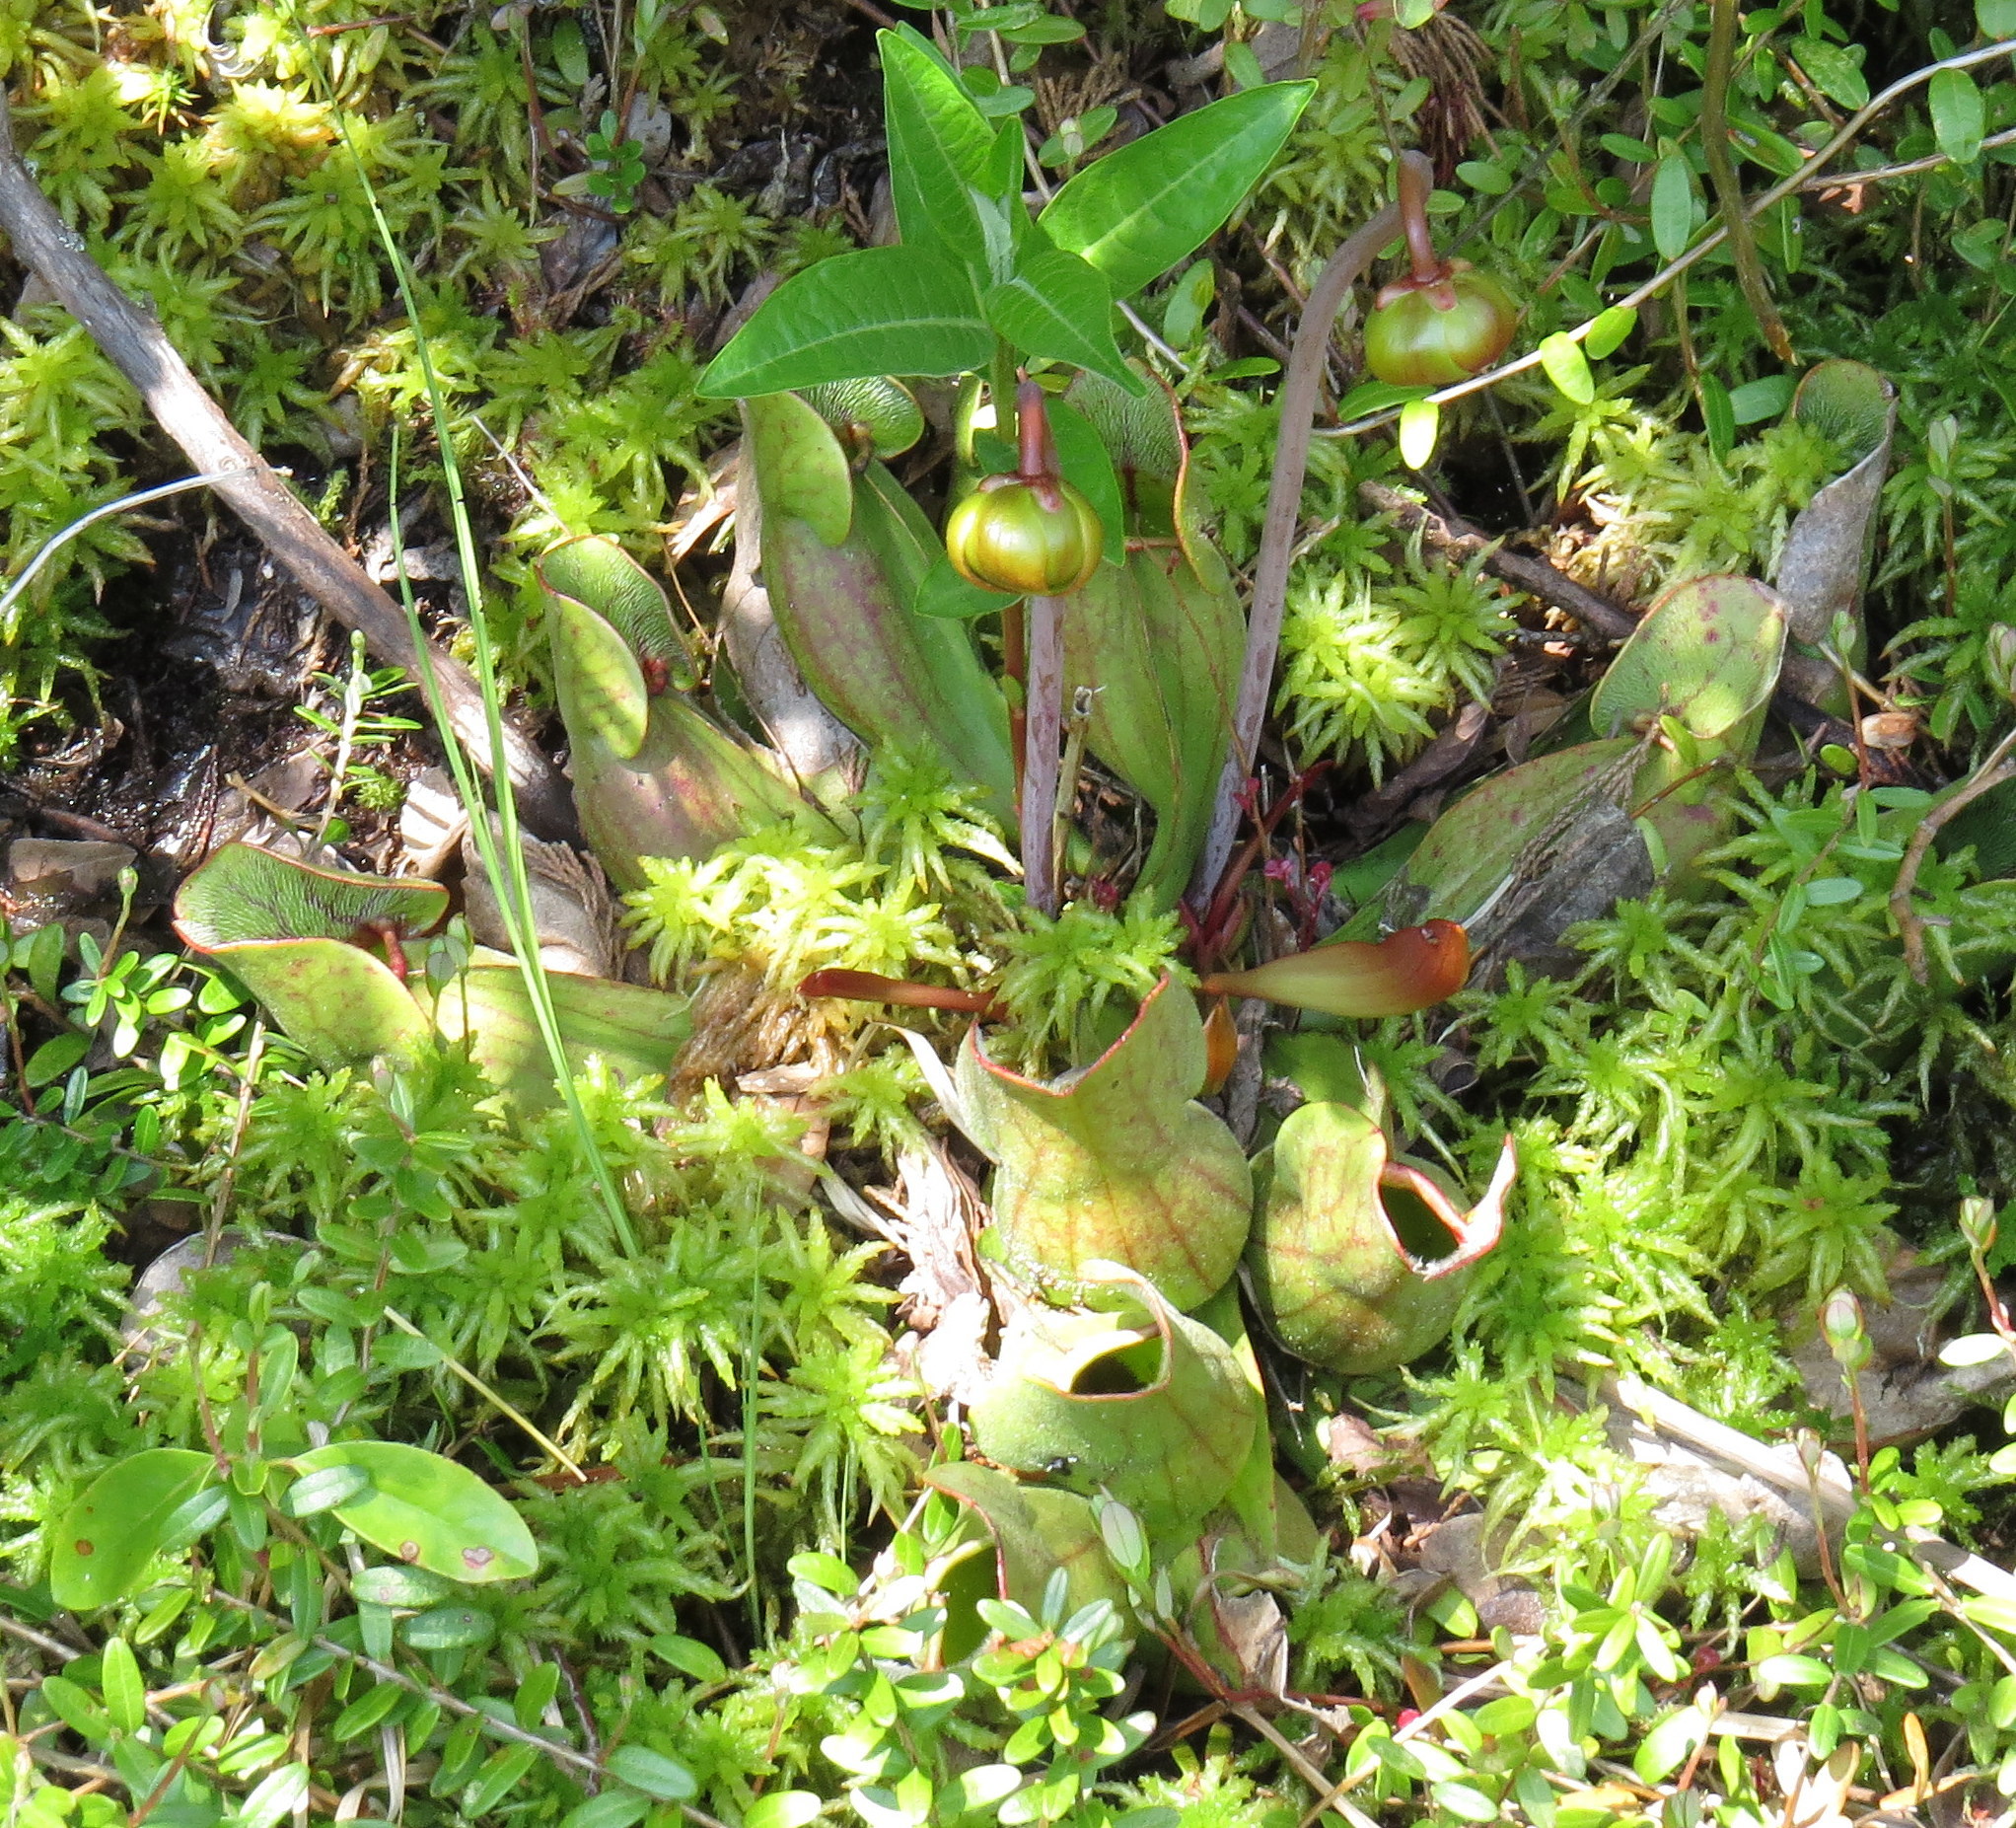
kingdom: Plantae
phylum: Tracheophyta
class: Magnoliopsida
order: Ericales
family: Sarraceniaceae
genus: Sarracenia
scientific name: Sarracenia purpurea
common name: Pitcherplant
